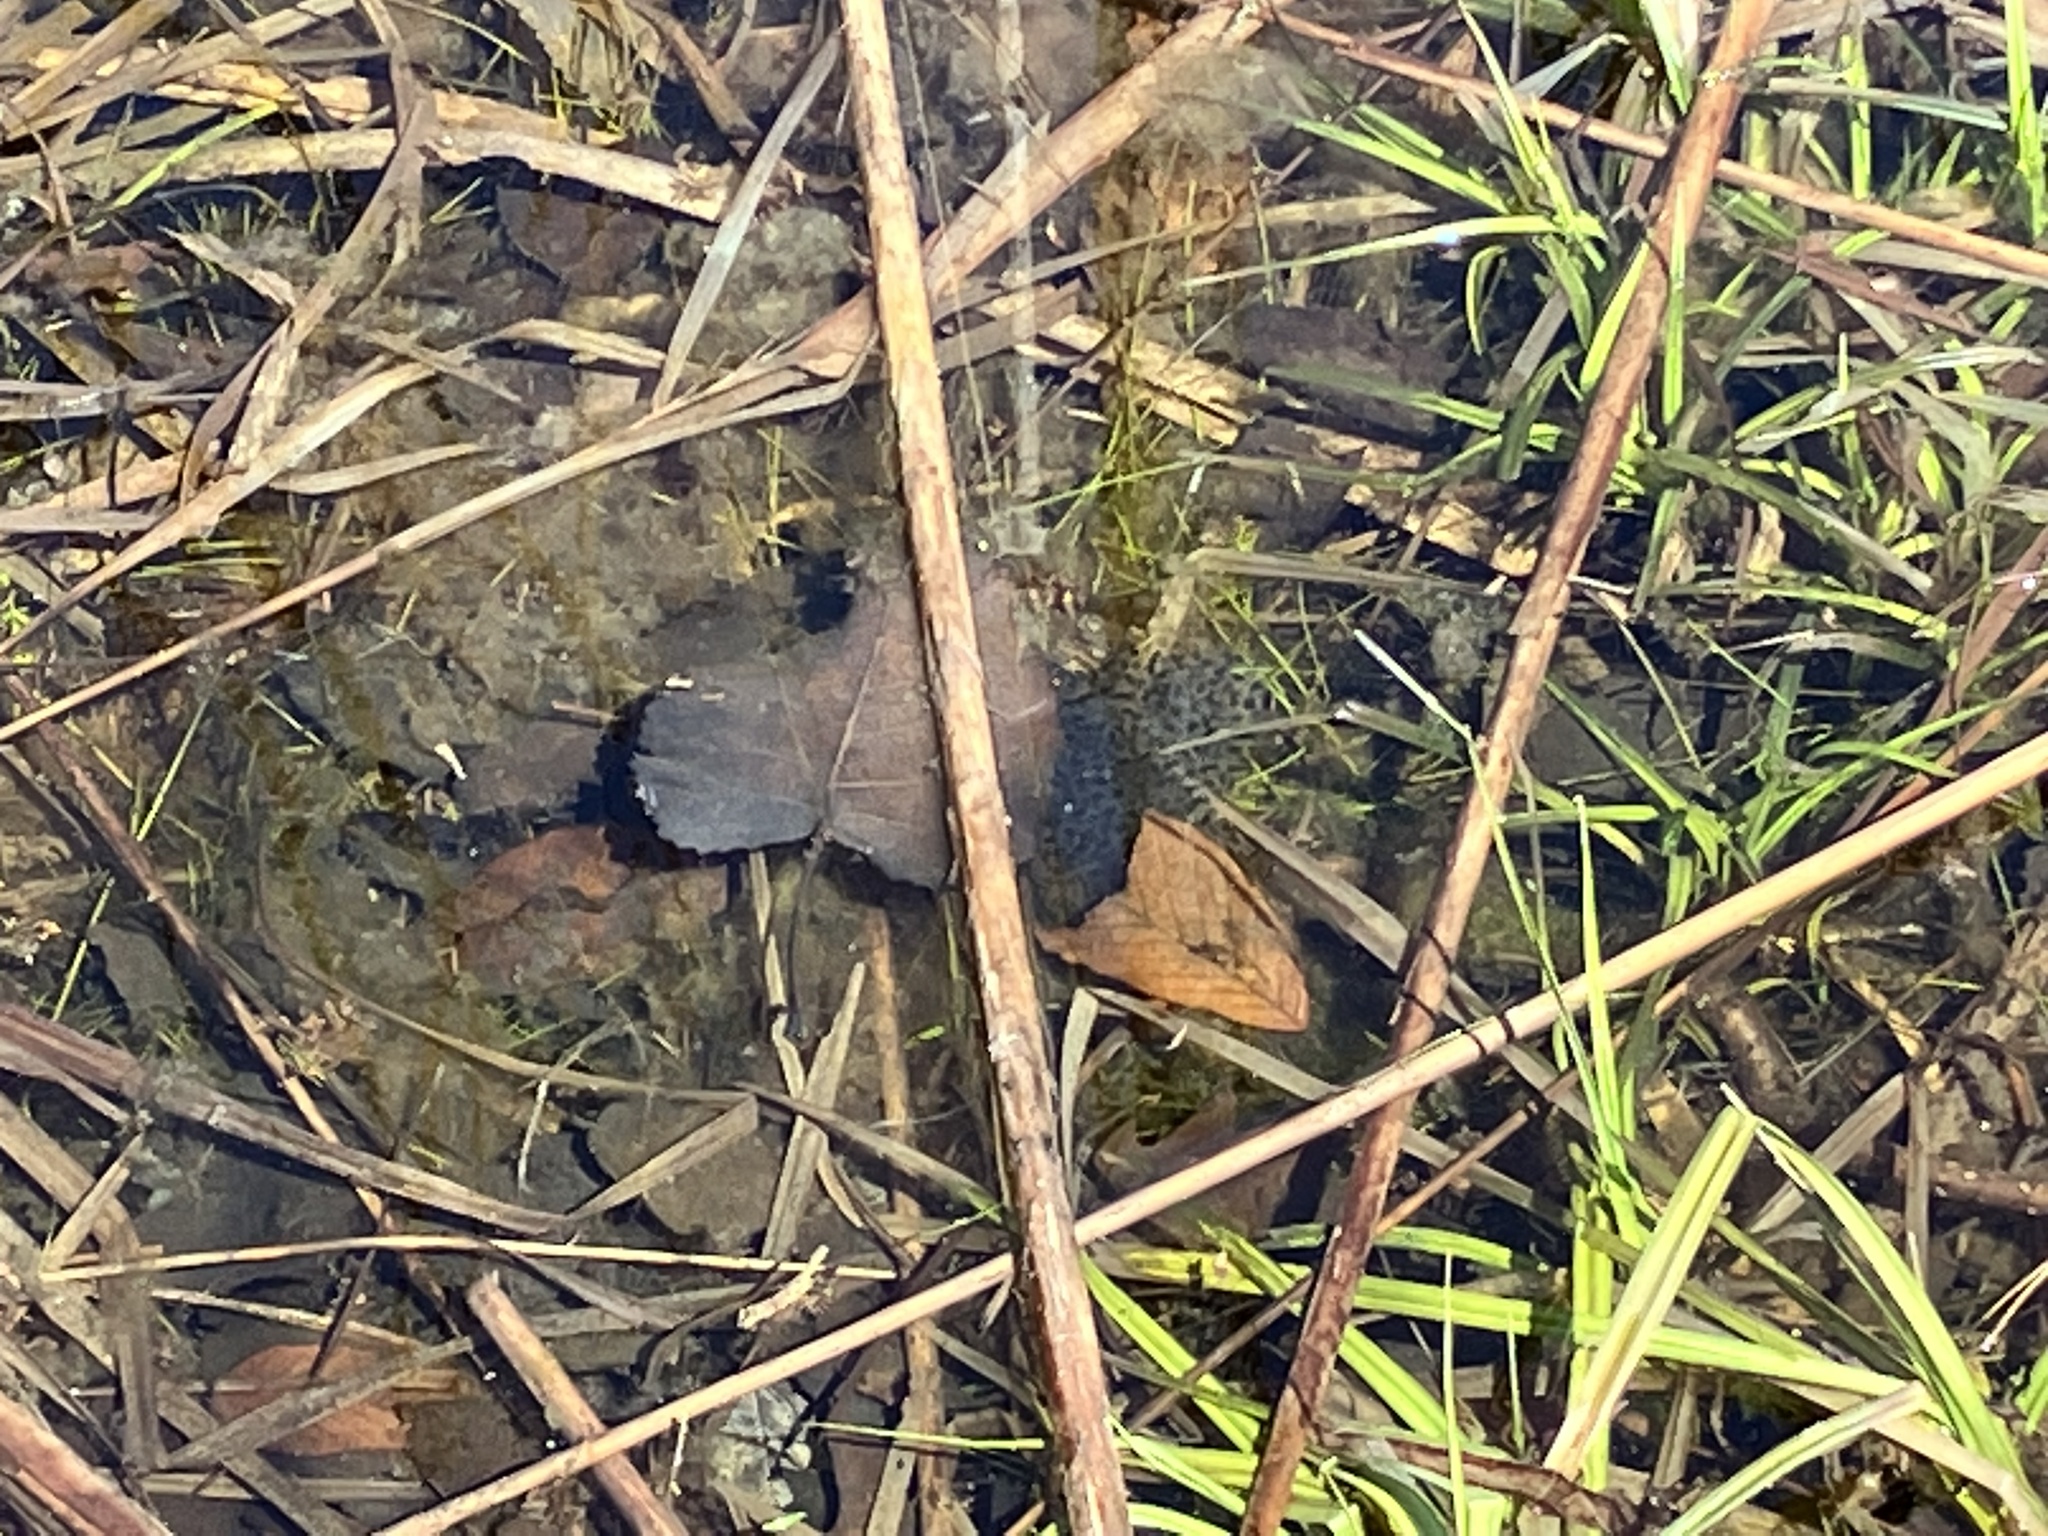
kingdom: Animalia
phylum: Chordata
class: Amphibia
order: Anura
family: Ranidae
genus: Lithobates
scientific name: Lithobates sylvaticus
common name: Wood frog
